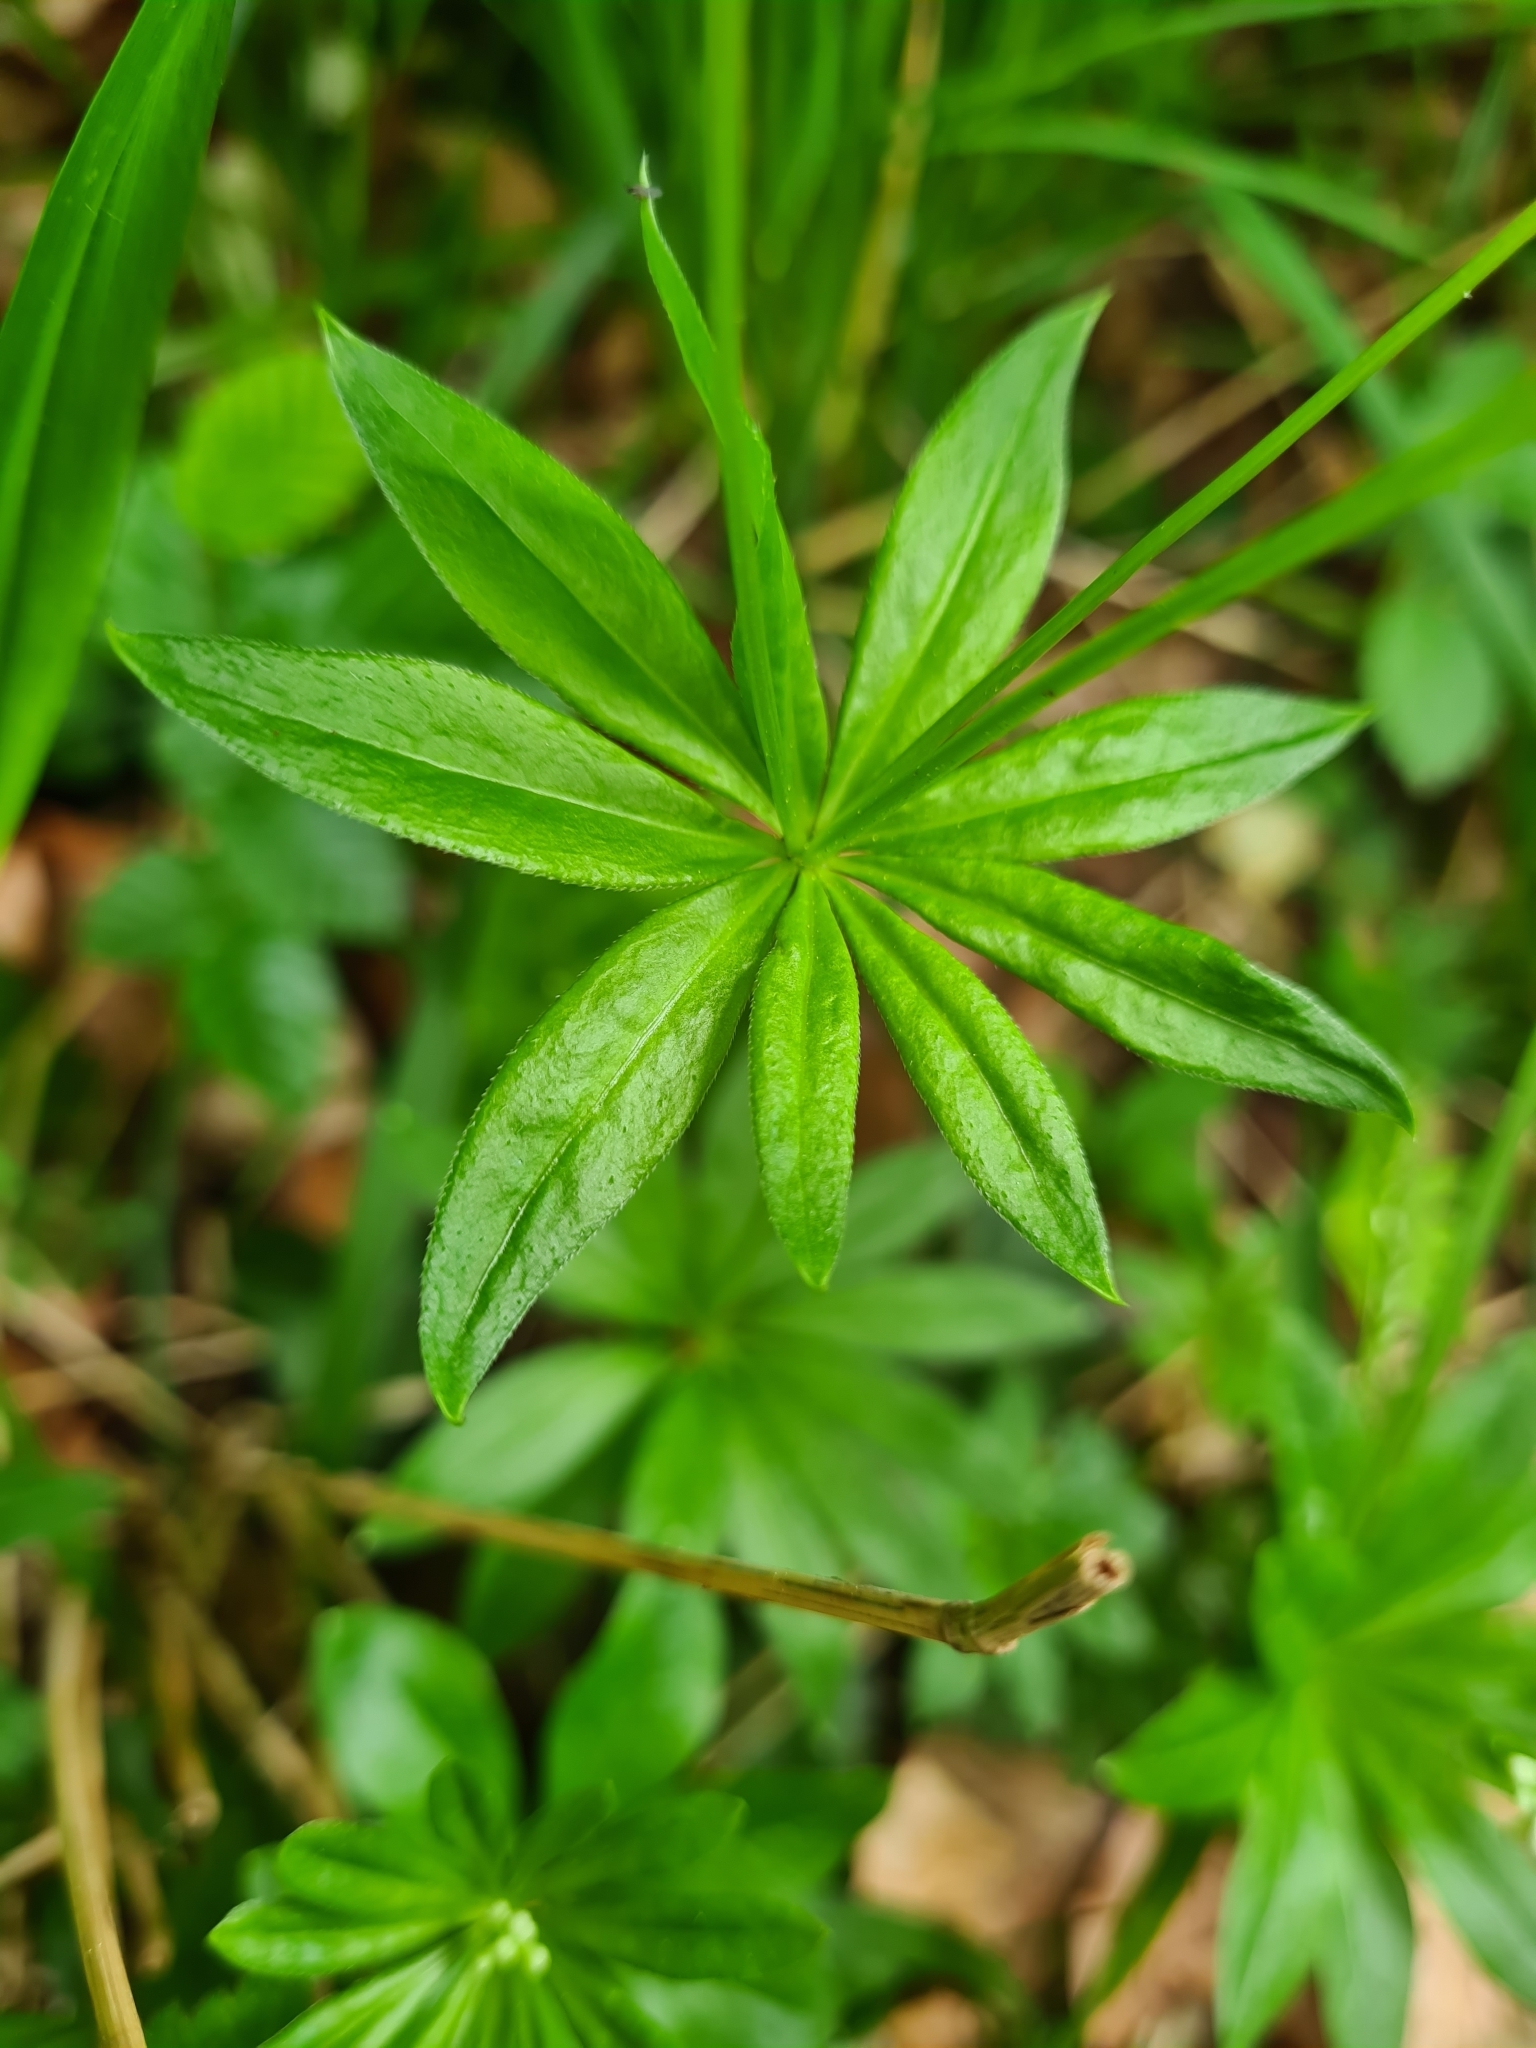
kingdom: Plantae
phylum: Tracheophyta
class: Magnoliopsida
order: Gentianales
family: Rubiaceae
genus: Galium
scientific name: Galium odoratum
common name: Sweet woodruff
